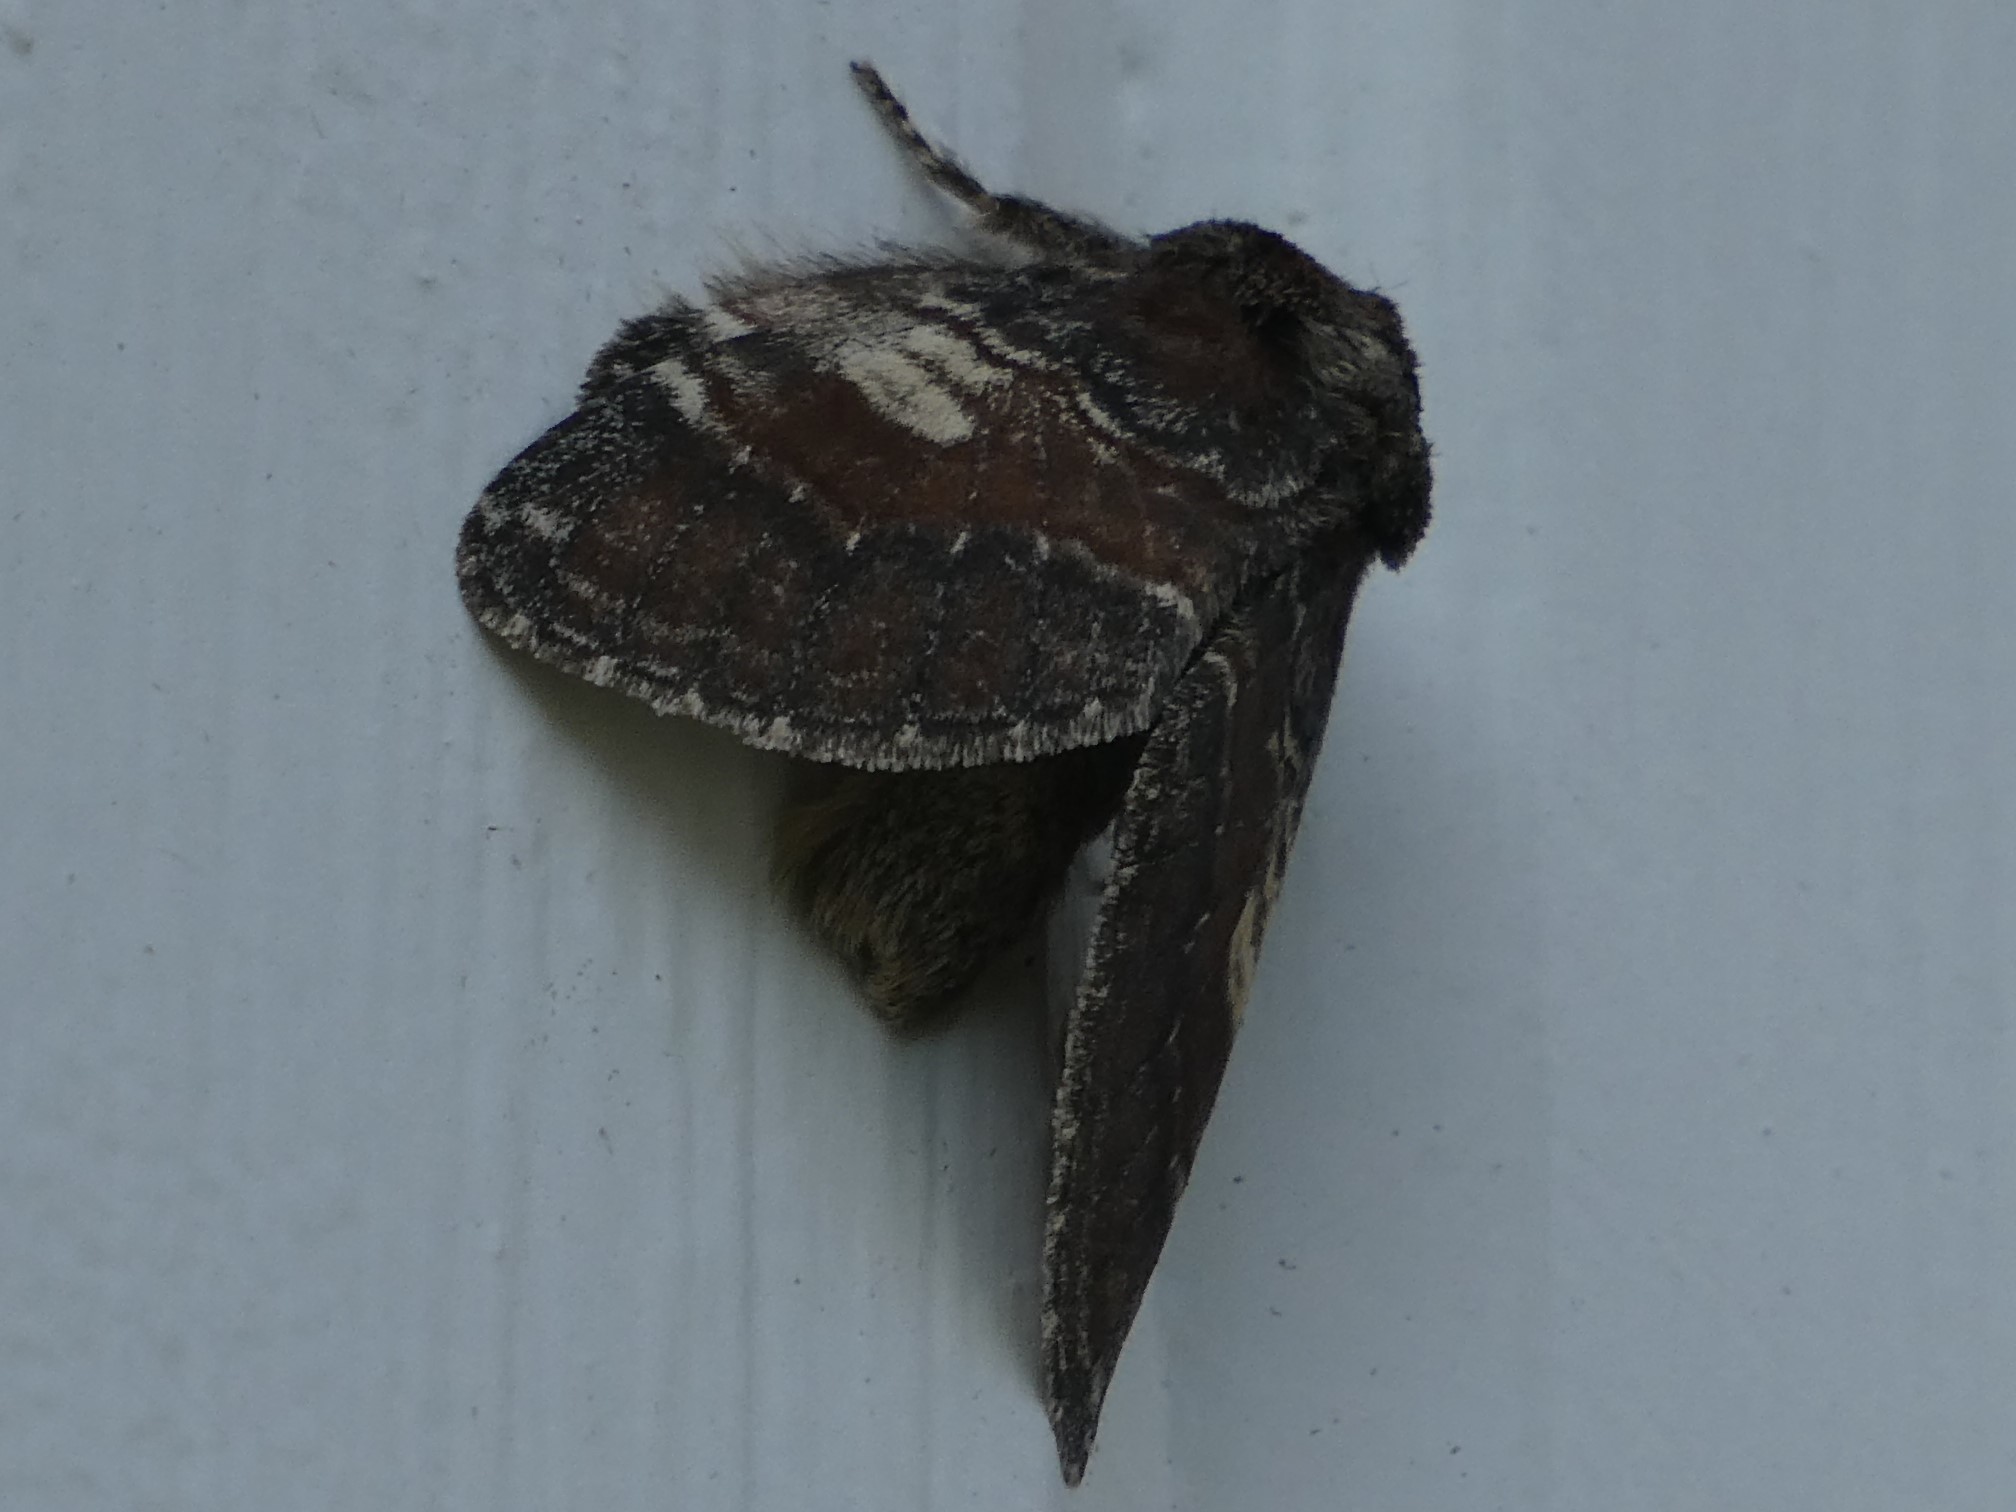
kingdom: Animalia
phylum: Arthropoda
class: Insecta
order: Lepidoptera
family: Notodontidae
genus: Peridea
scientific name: Peridea ferruginea
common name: Chocolate prominent
